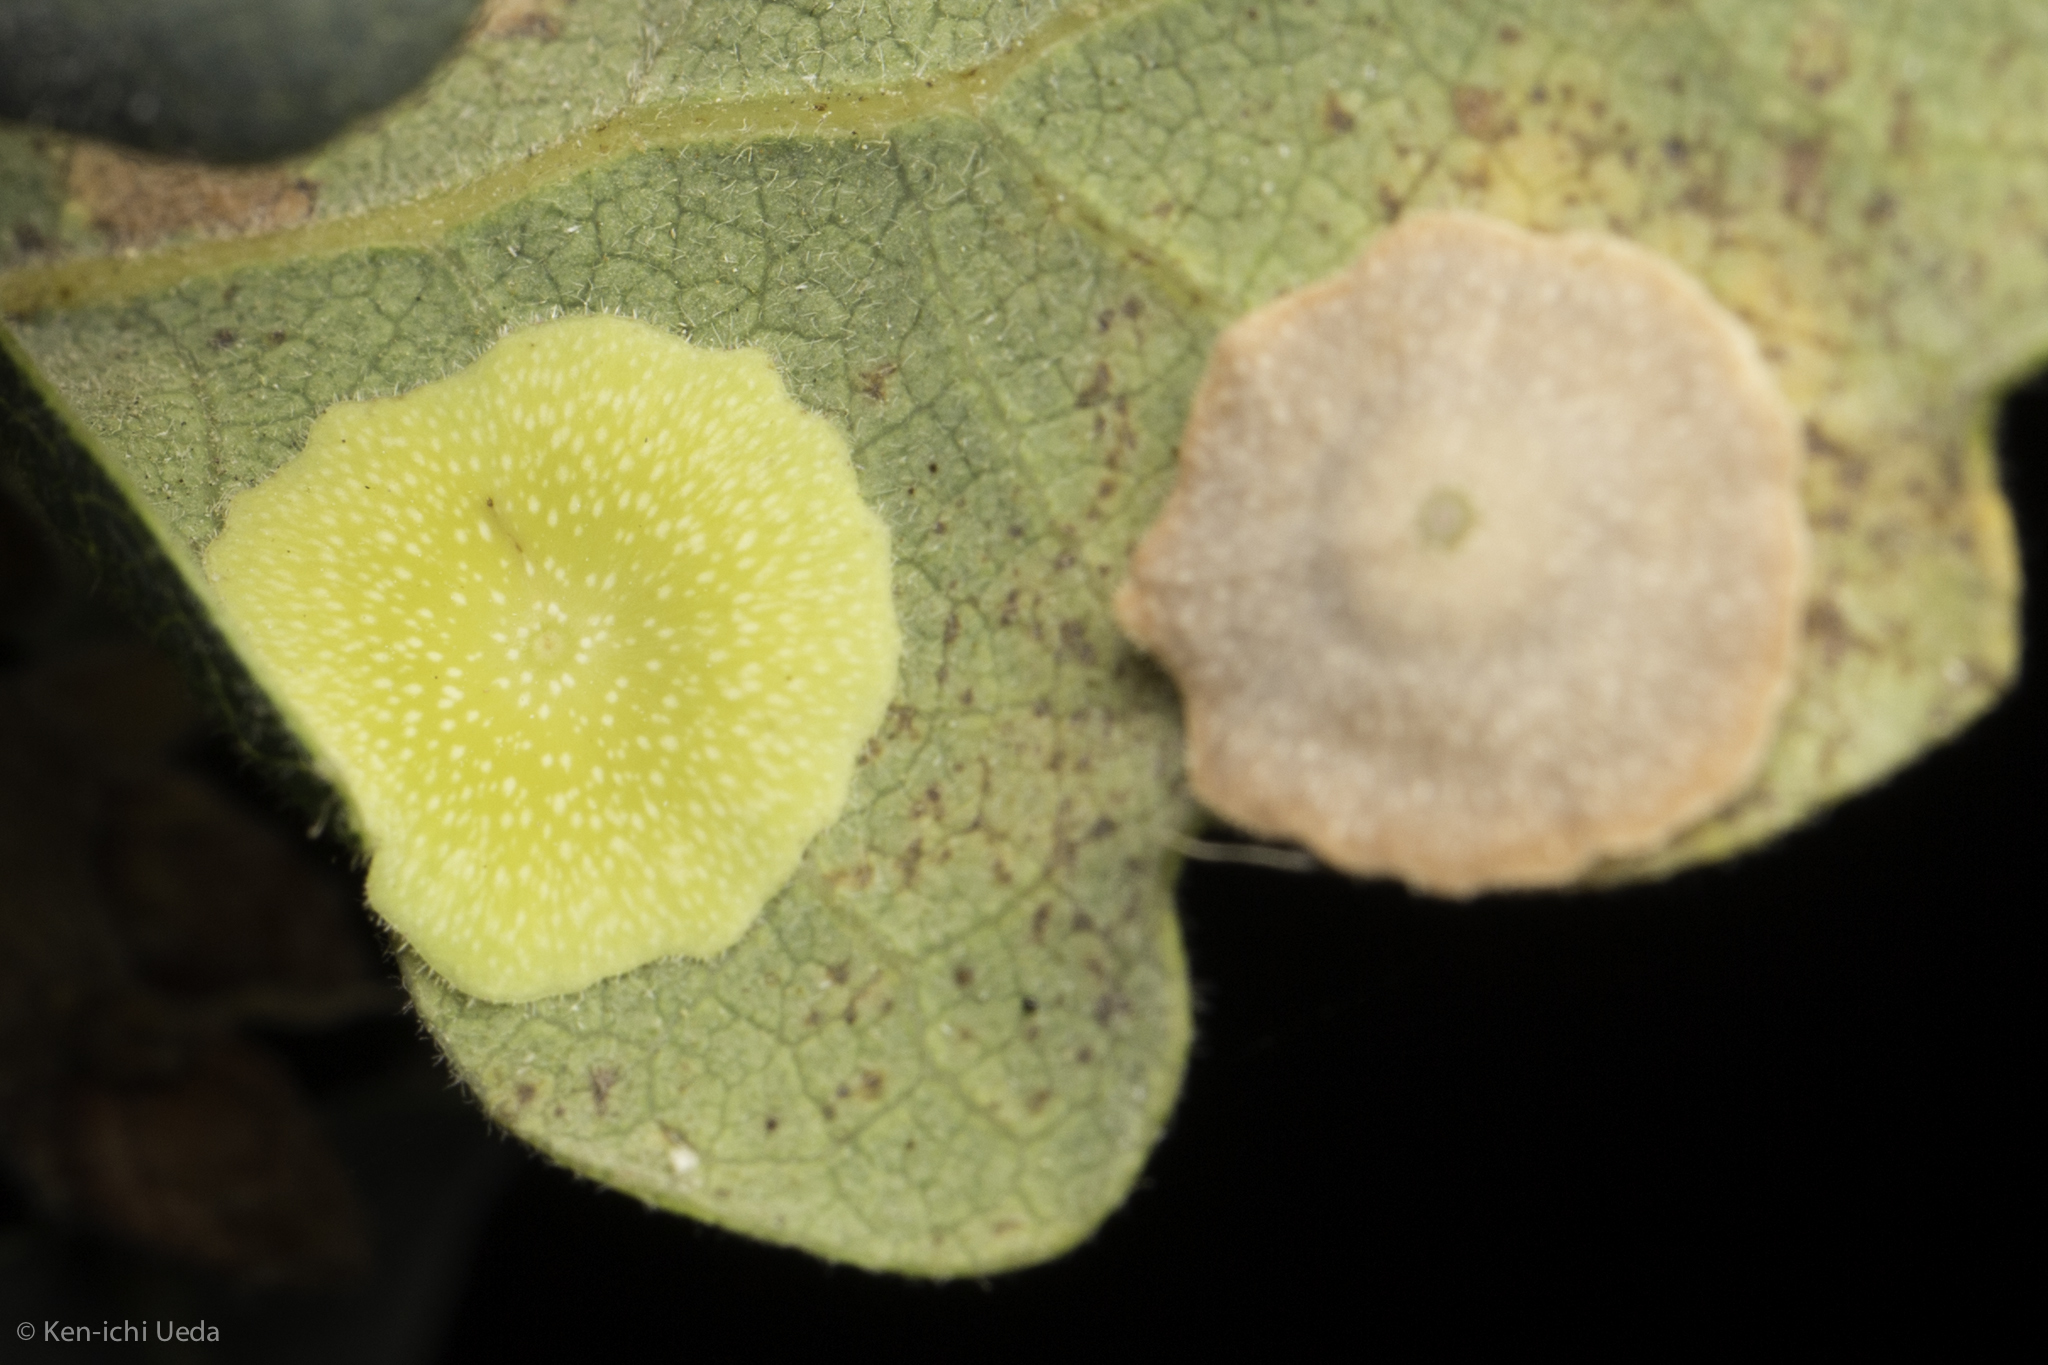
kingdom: Animalia
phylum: Arthropoda
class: Insecta
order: Hymenoptera
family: Cynipidae
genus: Andricus
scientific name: Andricus
